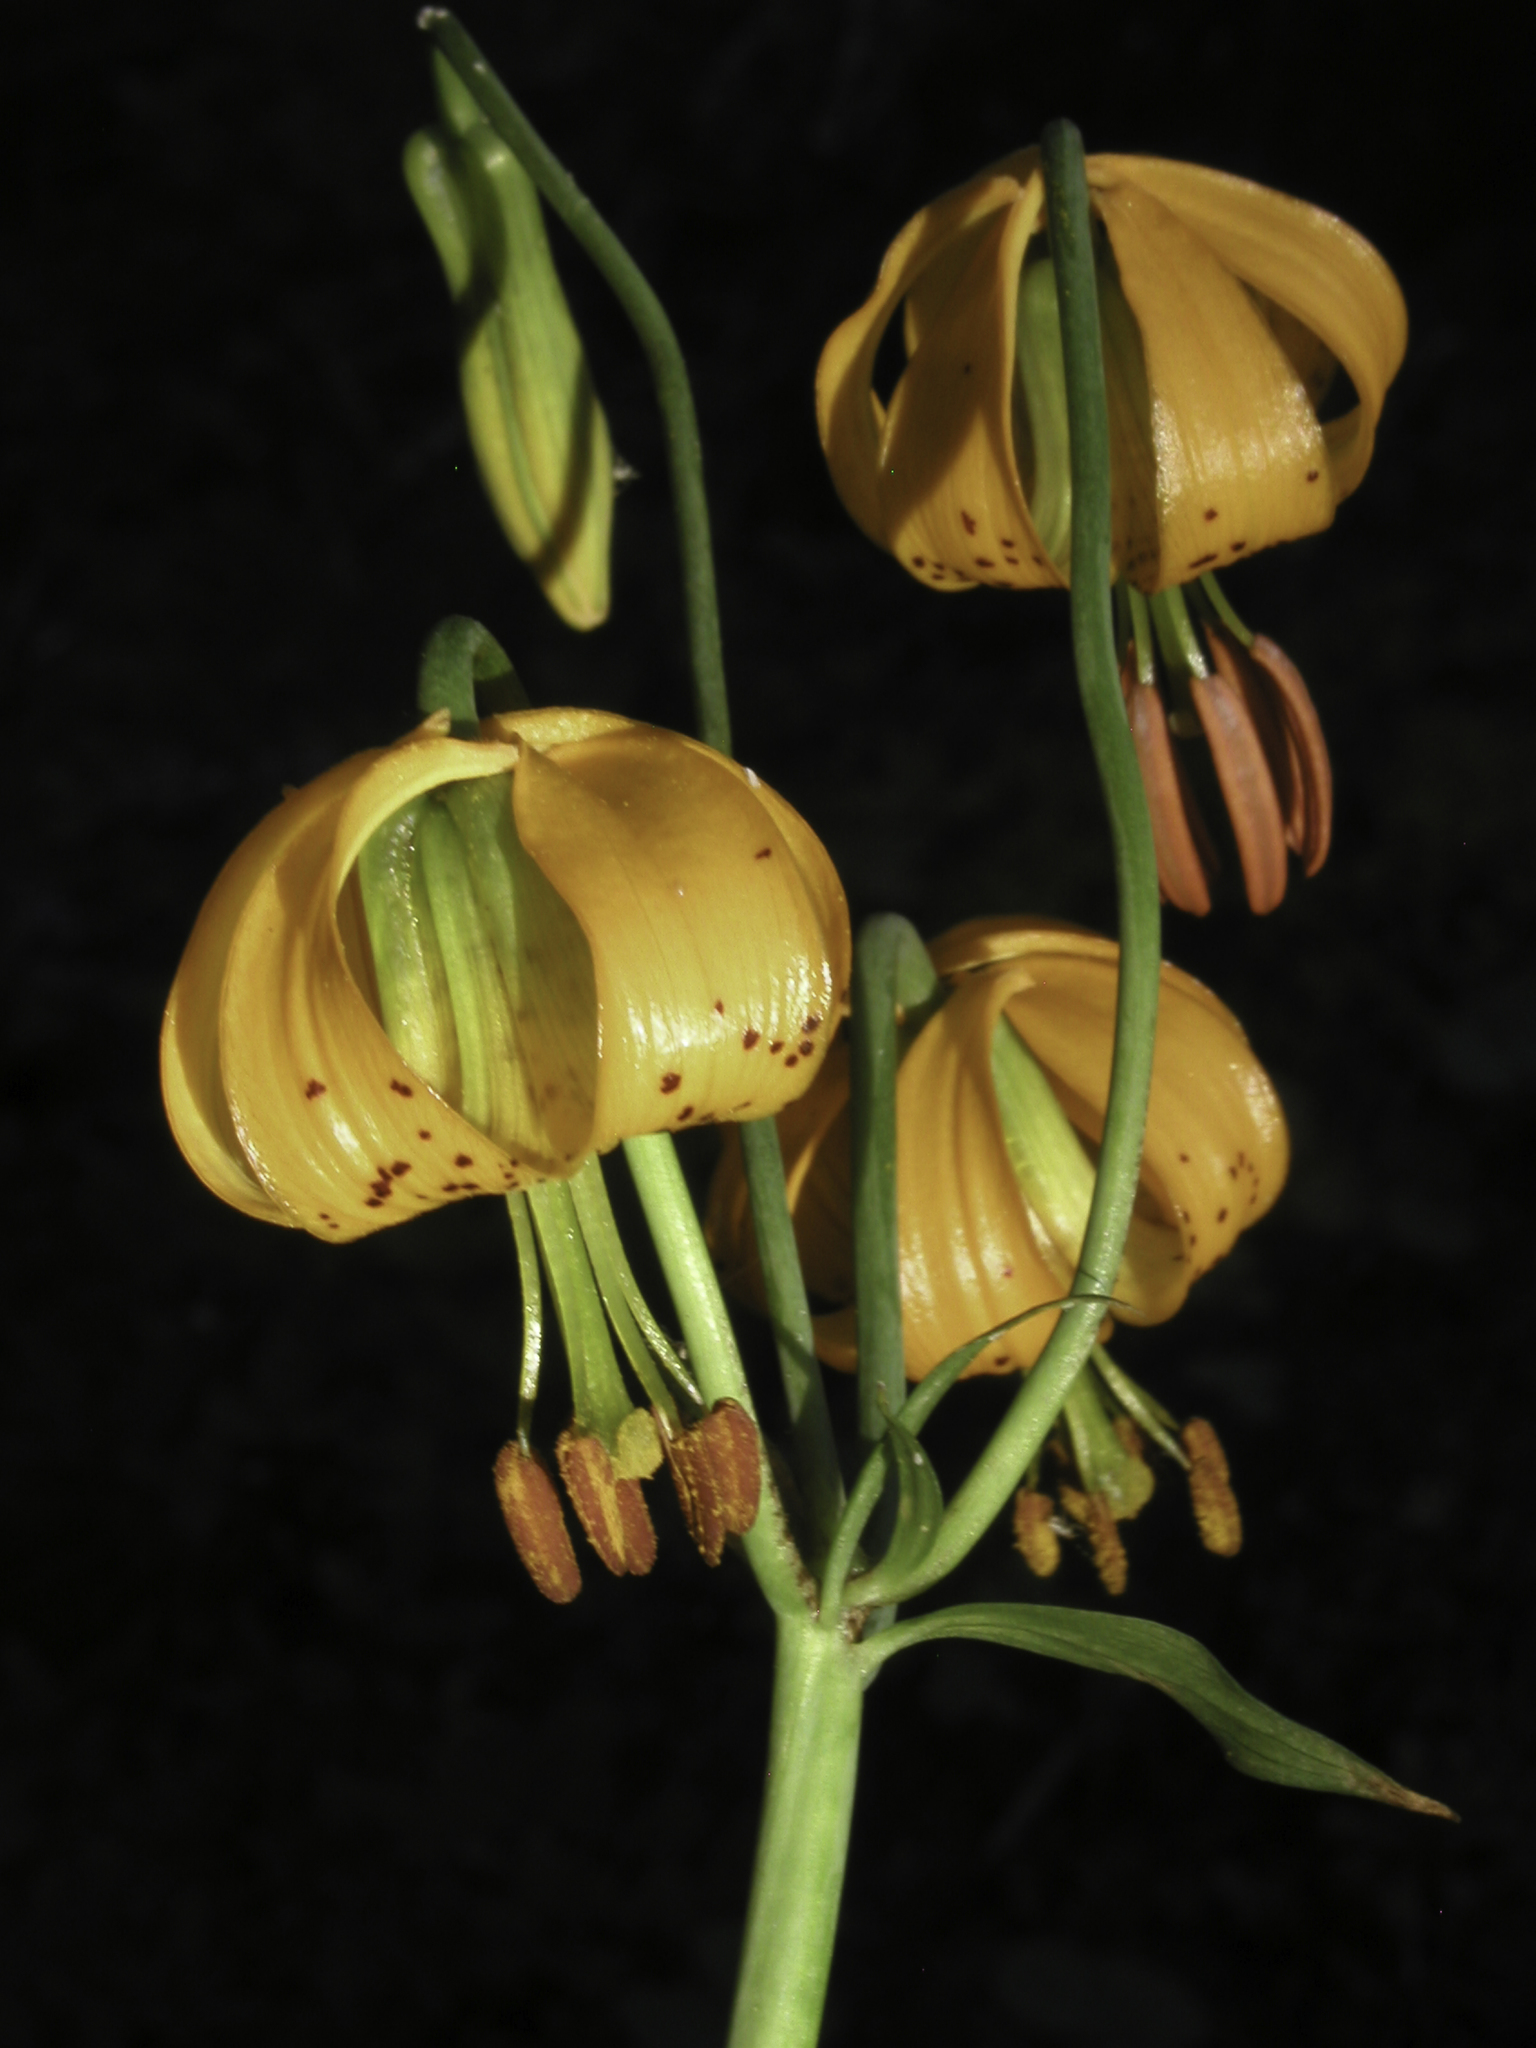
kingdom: Plantae
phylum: Tracheophyta
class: Liliopsida
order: Liliales
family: Liliaceae
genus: Lilium
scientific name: Lilium columbianum
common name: Columbia lily
